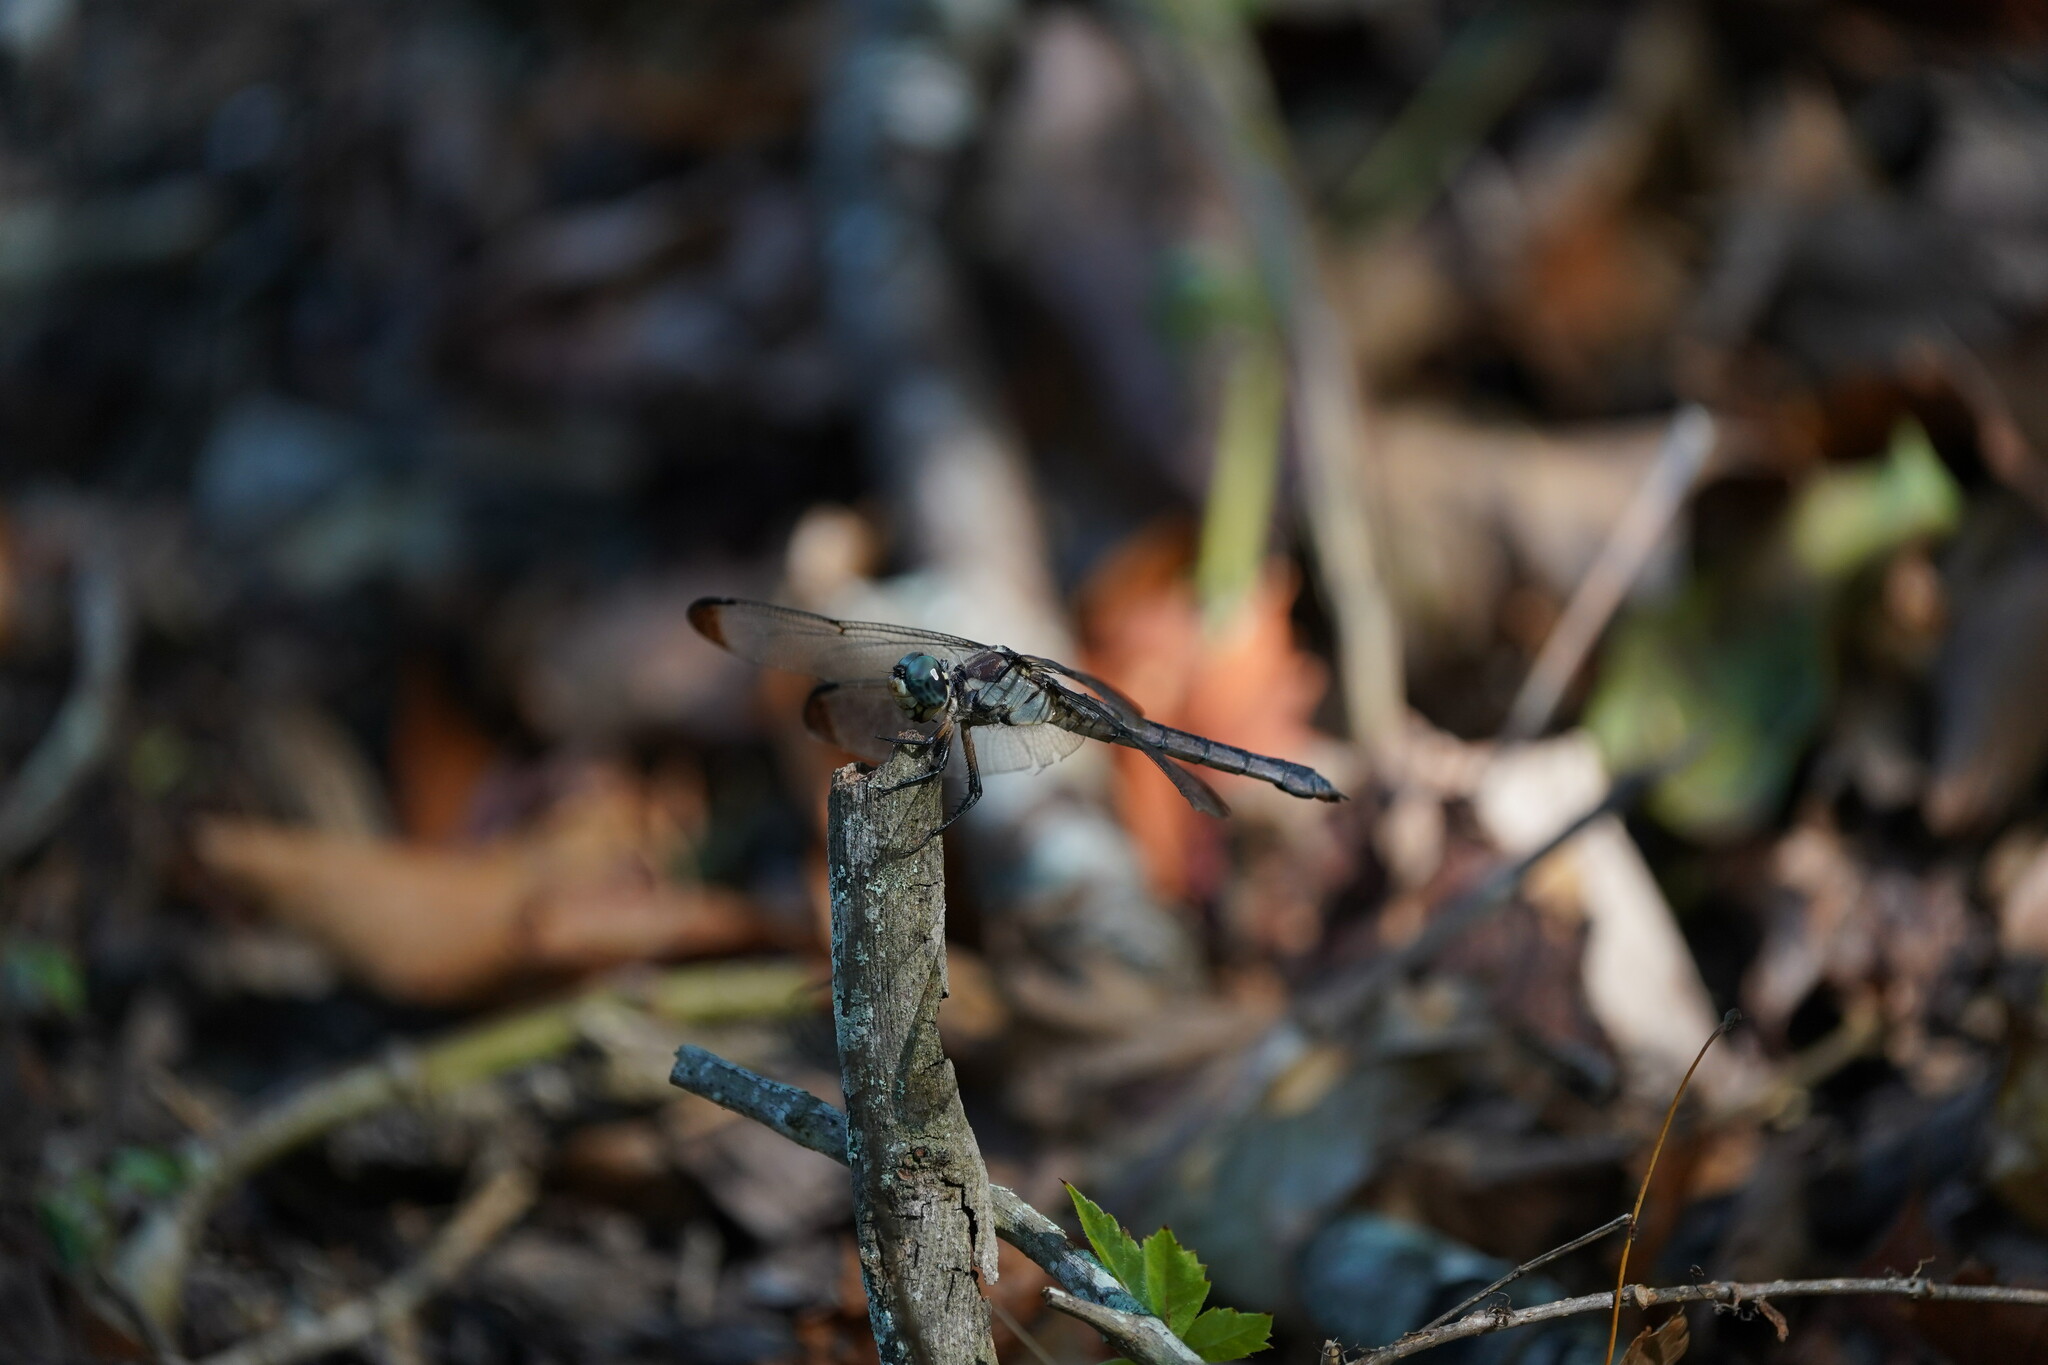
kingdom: Animalia
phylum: Arthropoda
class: Insecta
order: Odonata
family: Libellulidae
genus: Libellula
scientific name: Libellula vibrans
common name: Great blue skimmer
